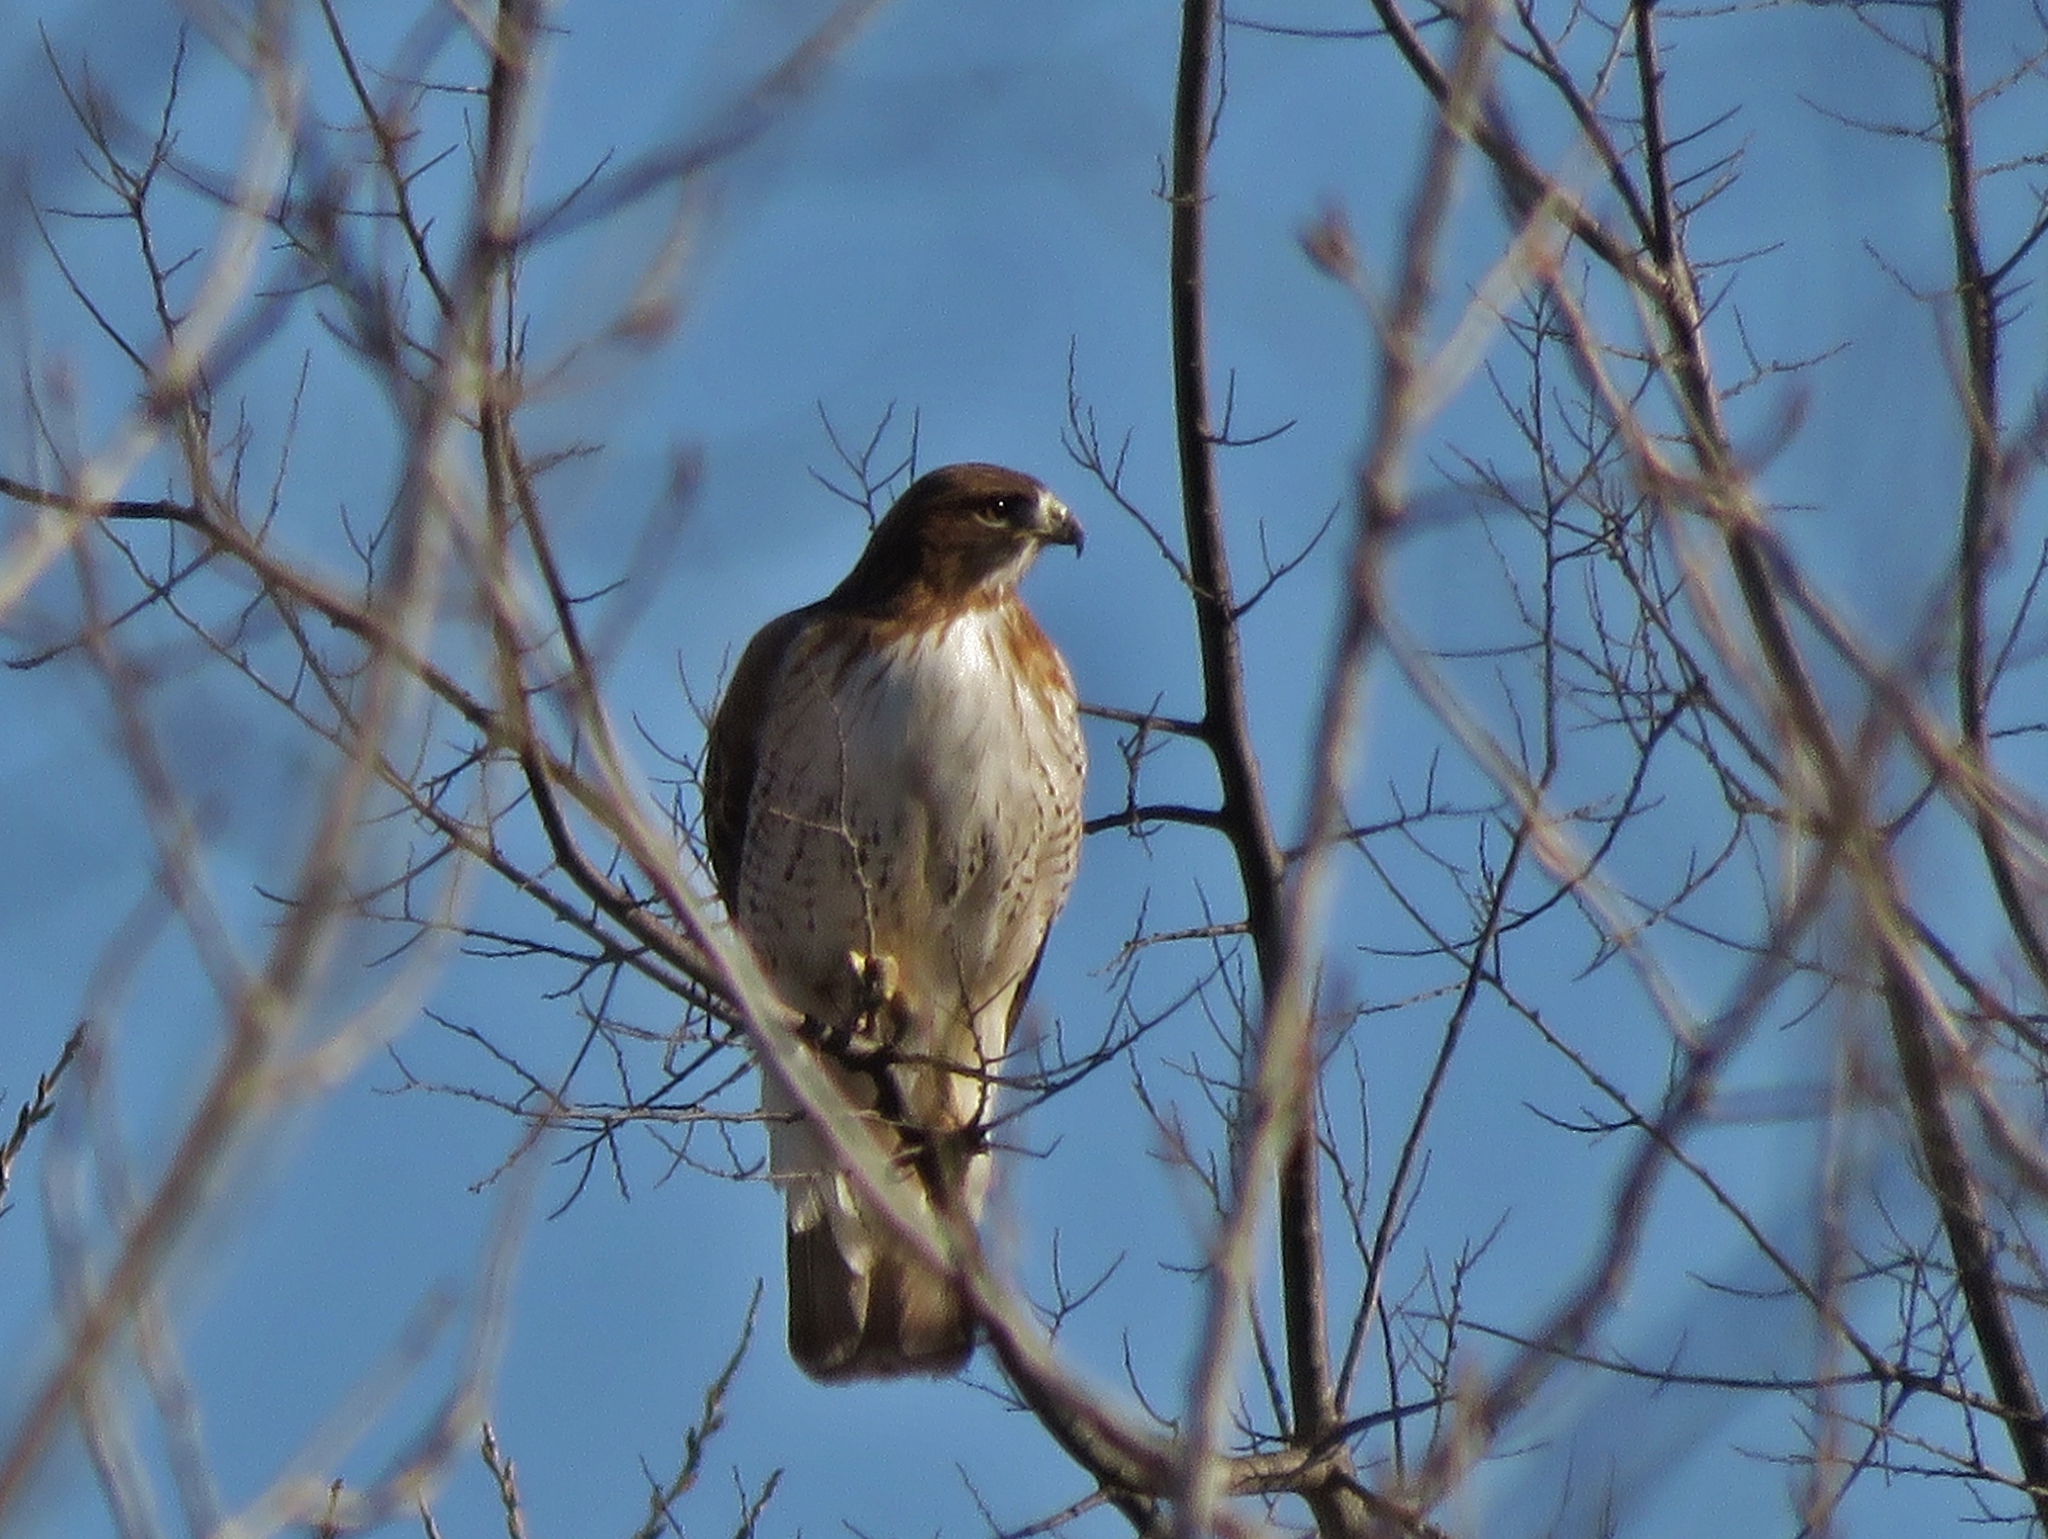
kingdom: Animalia
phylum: Chordata
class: Aves
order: Accipitriformes
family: Accipitridae
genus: Buteo
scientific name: Buteo jamaicensis
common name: Red-tailed hawk
